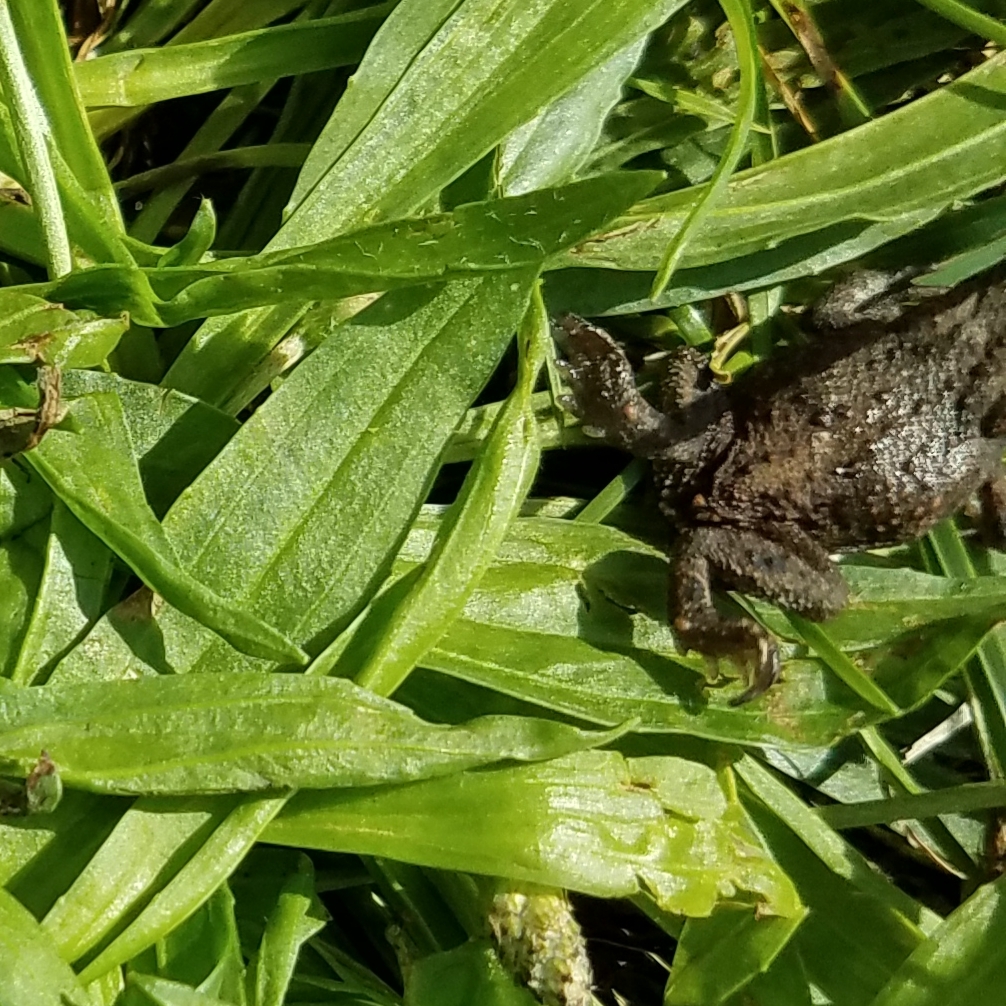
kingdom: Animalia
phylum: Chordata
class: Amphibia
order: Anura
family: Bufonidae
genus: Bufo
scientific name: Bufo bufo
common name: Common toad
